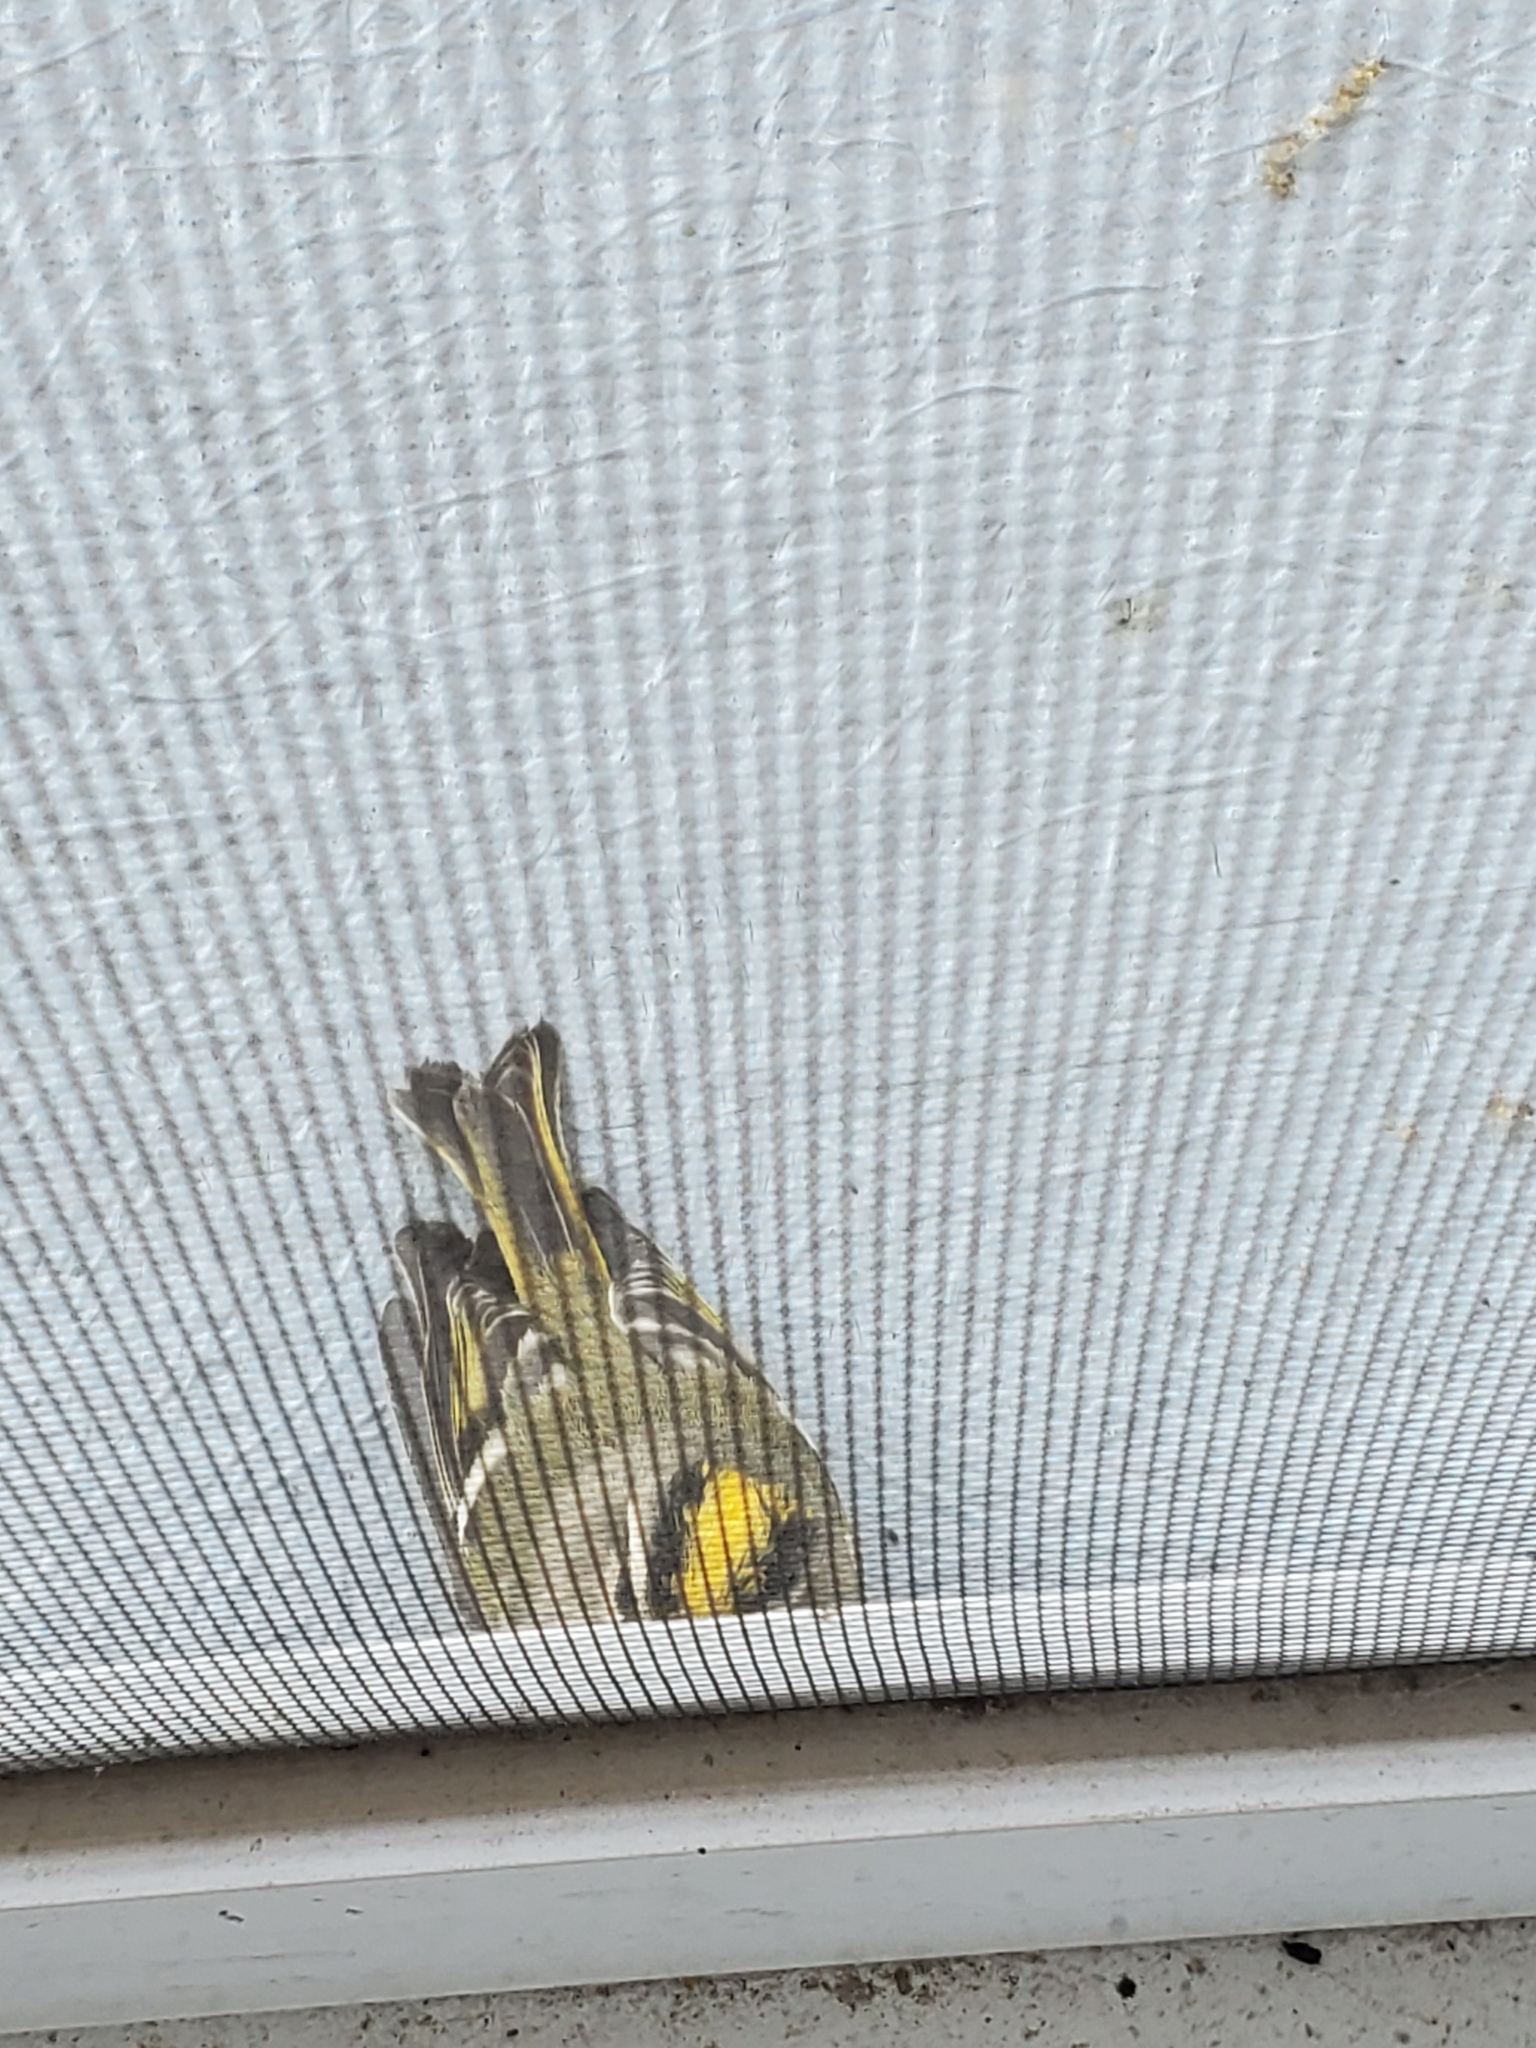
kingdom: Animalia
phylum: Chordata
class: Aves
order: Passeriformes
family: Regulidae
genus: Regulus
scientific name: Regulus satrapa
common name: Golden-crowned kinglet
